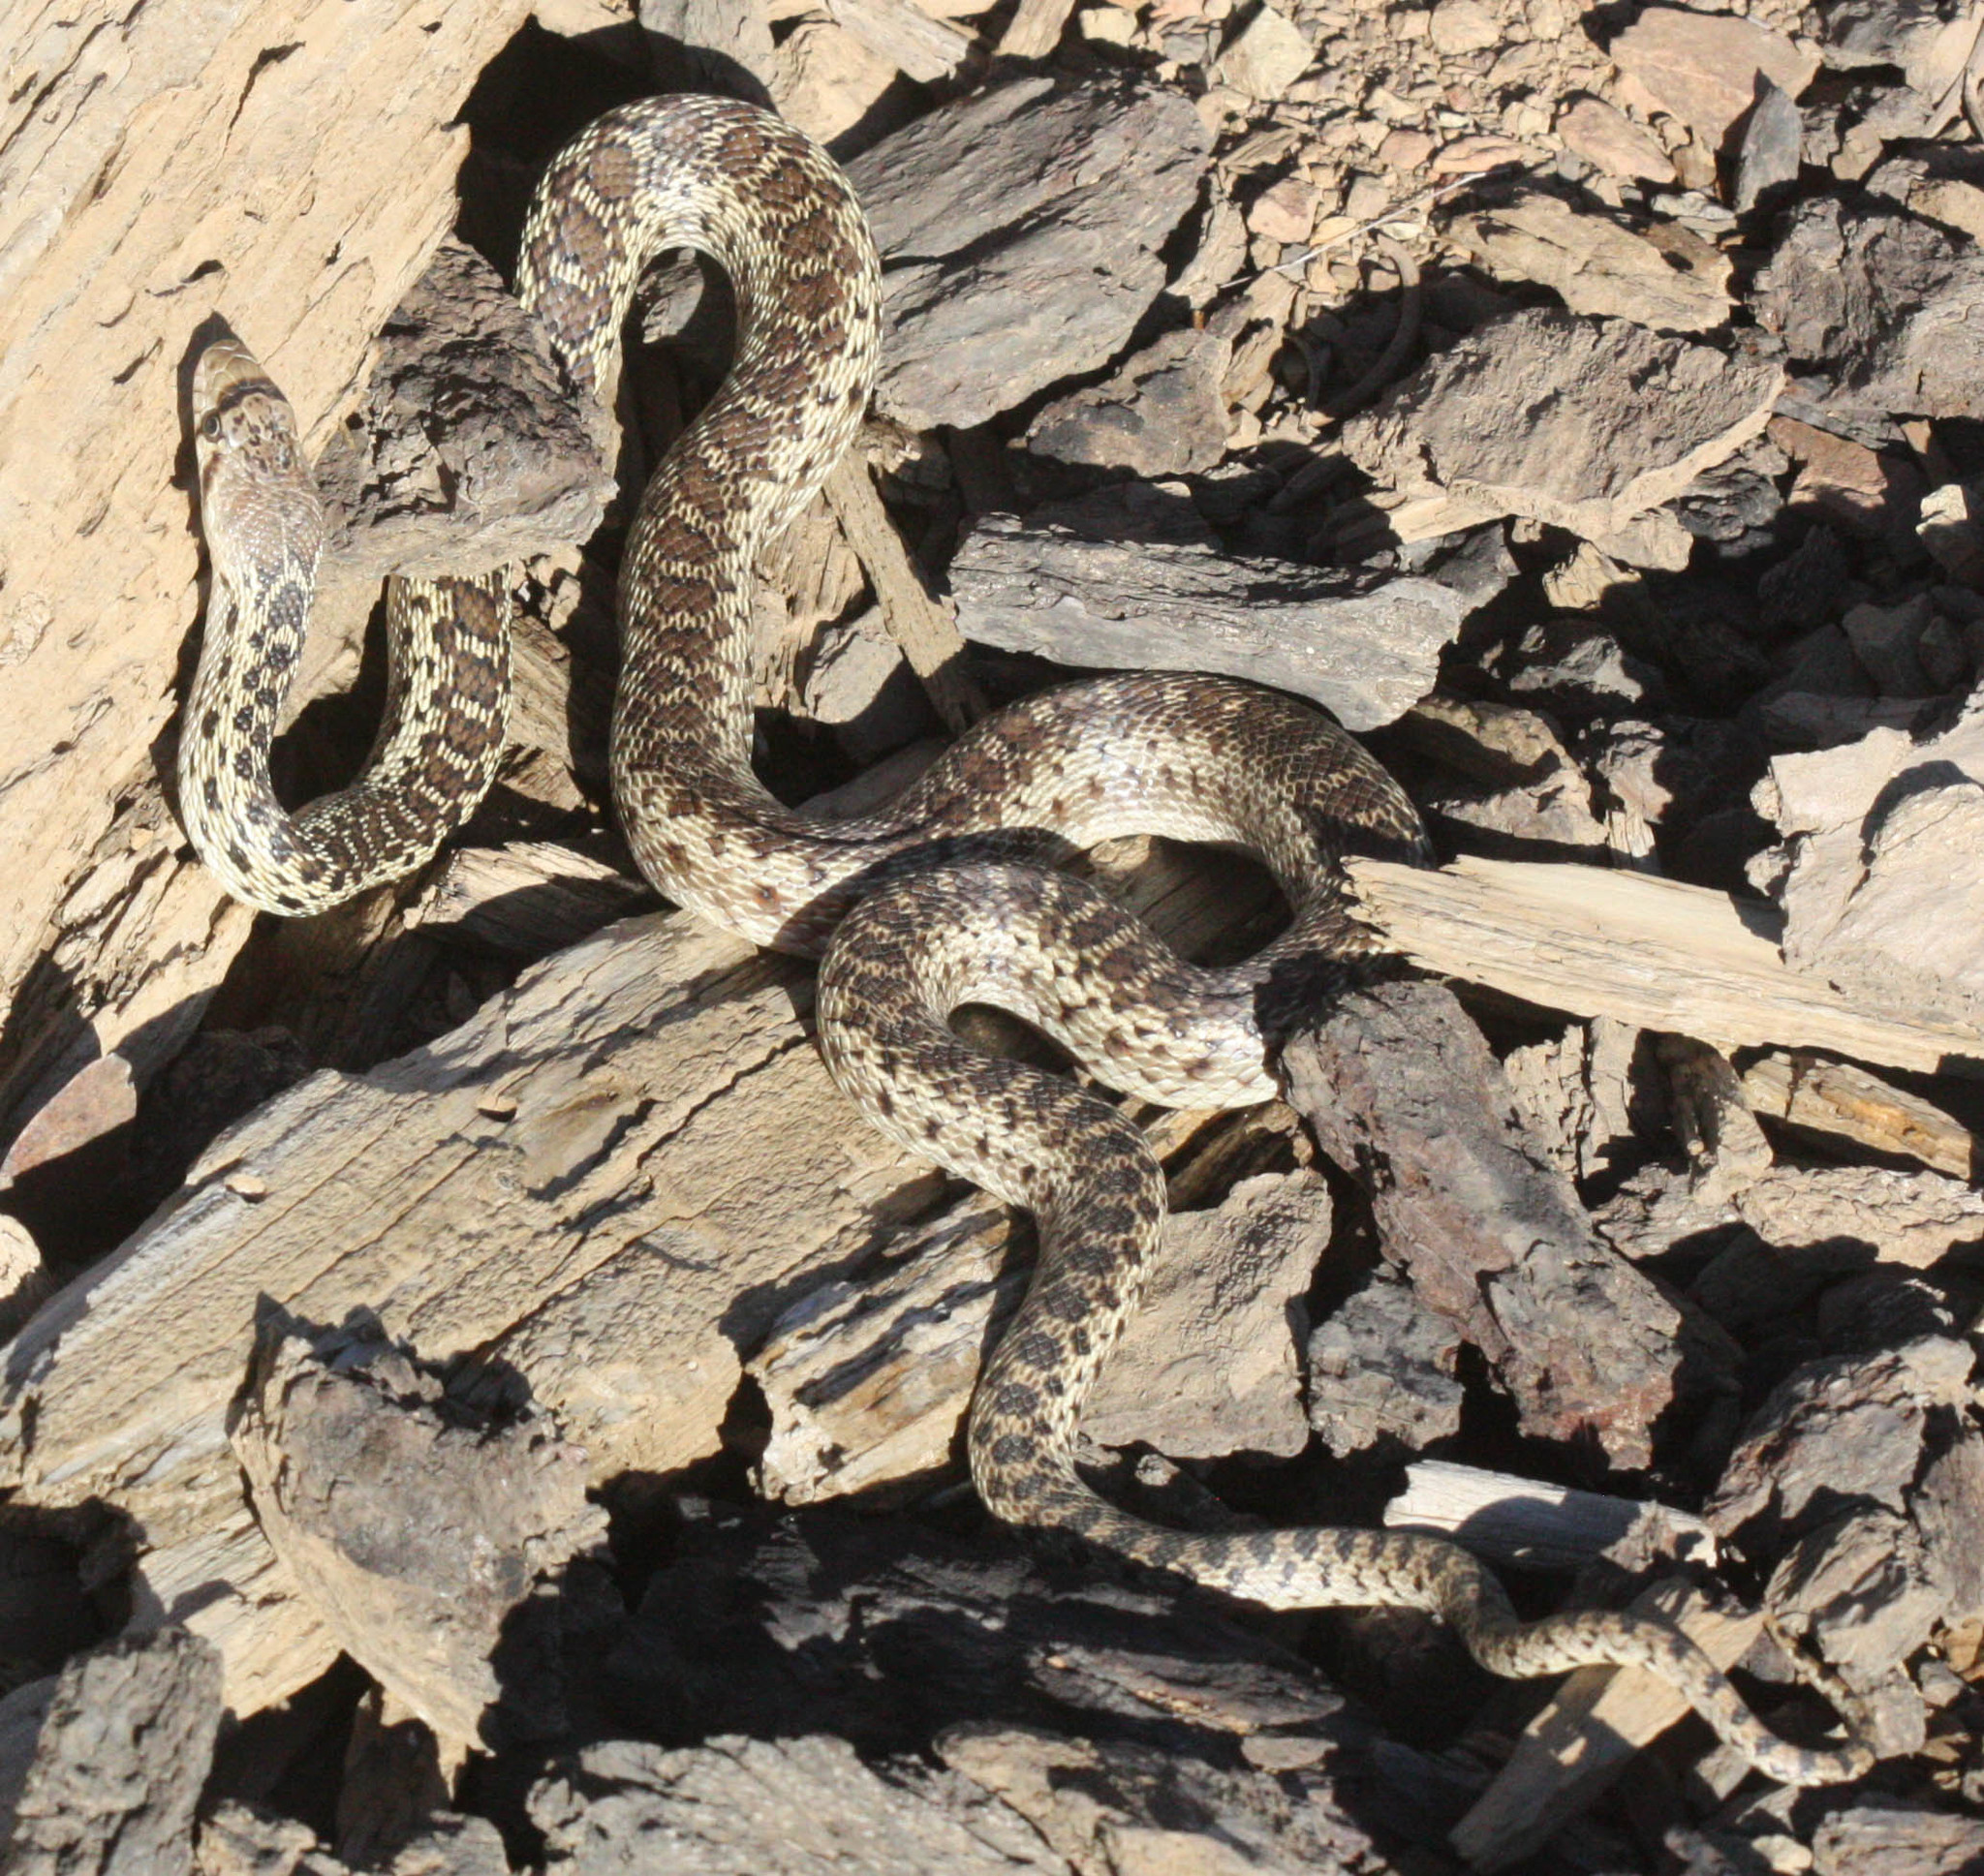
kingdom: Animalia
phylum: Chordata
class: Squamata
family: Colubridae
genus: Pituophis
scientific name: Pituophis catenifer
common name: Gopher snake
